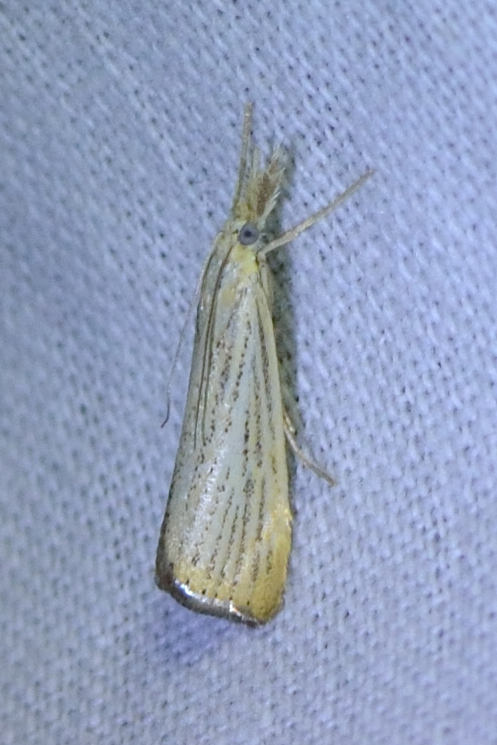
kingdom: Animalia
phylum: Arthropoda
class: Insecta
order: Lepidoptera
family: Crambidae
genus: Agriphila
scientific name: Agriphila straminella
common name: Straw grass-veneer
